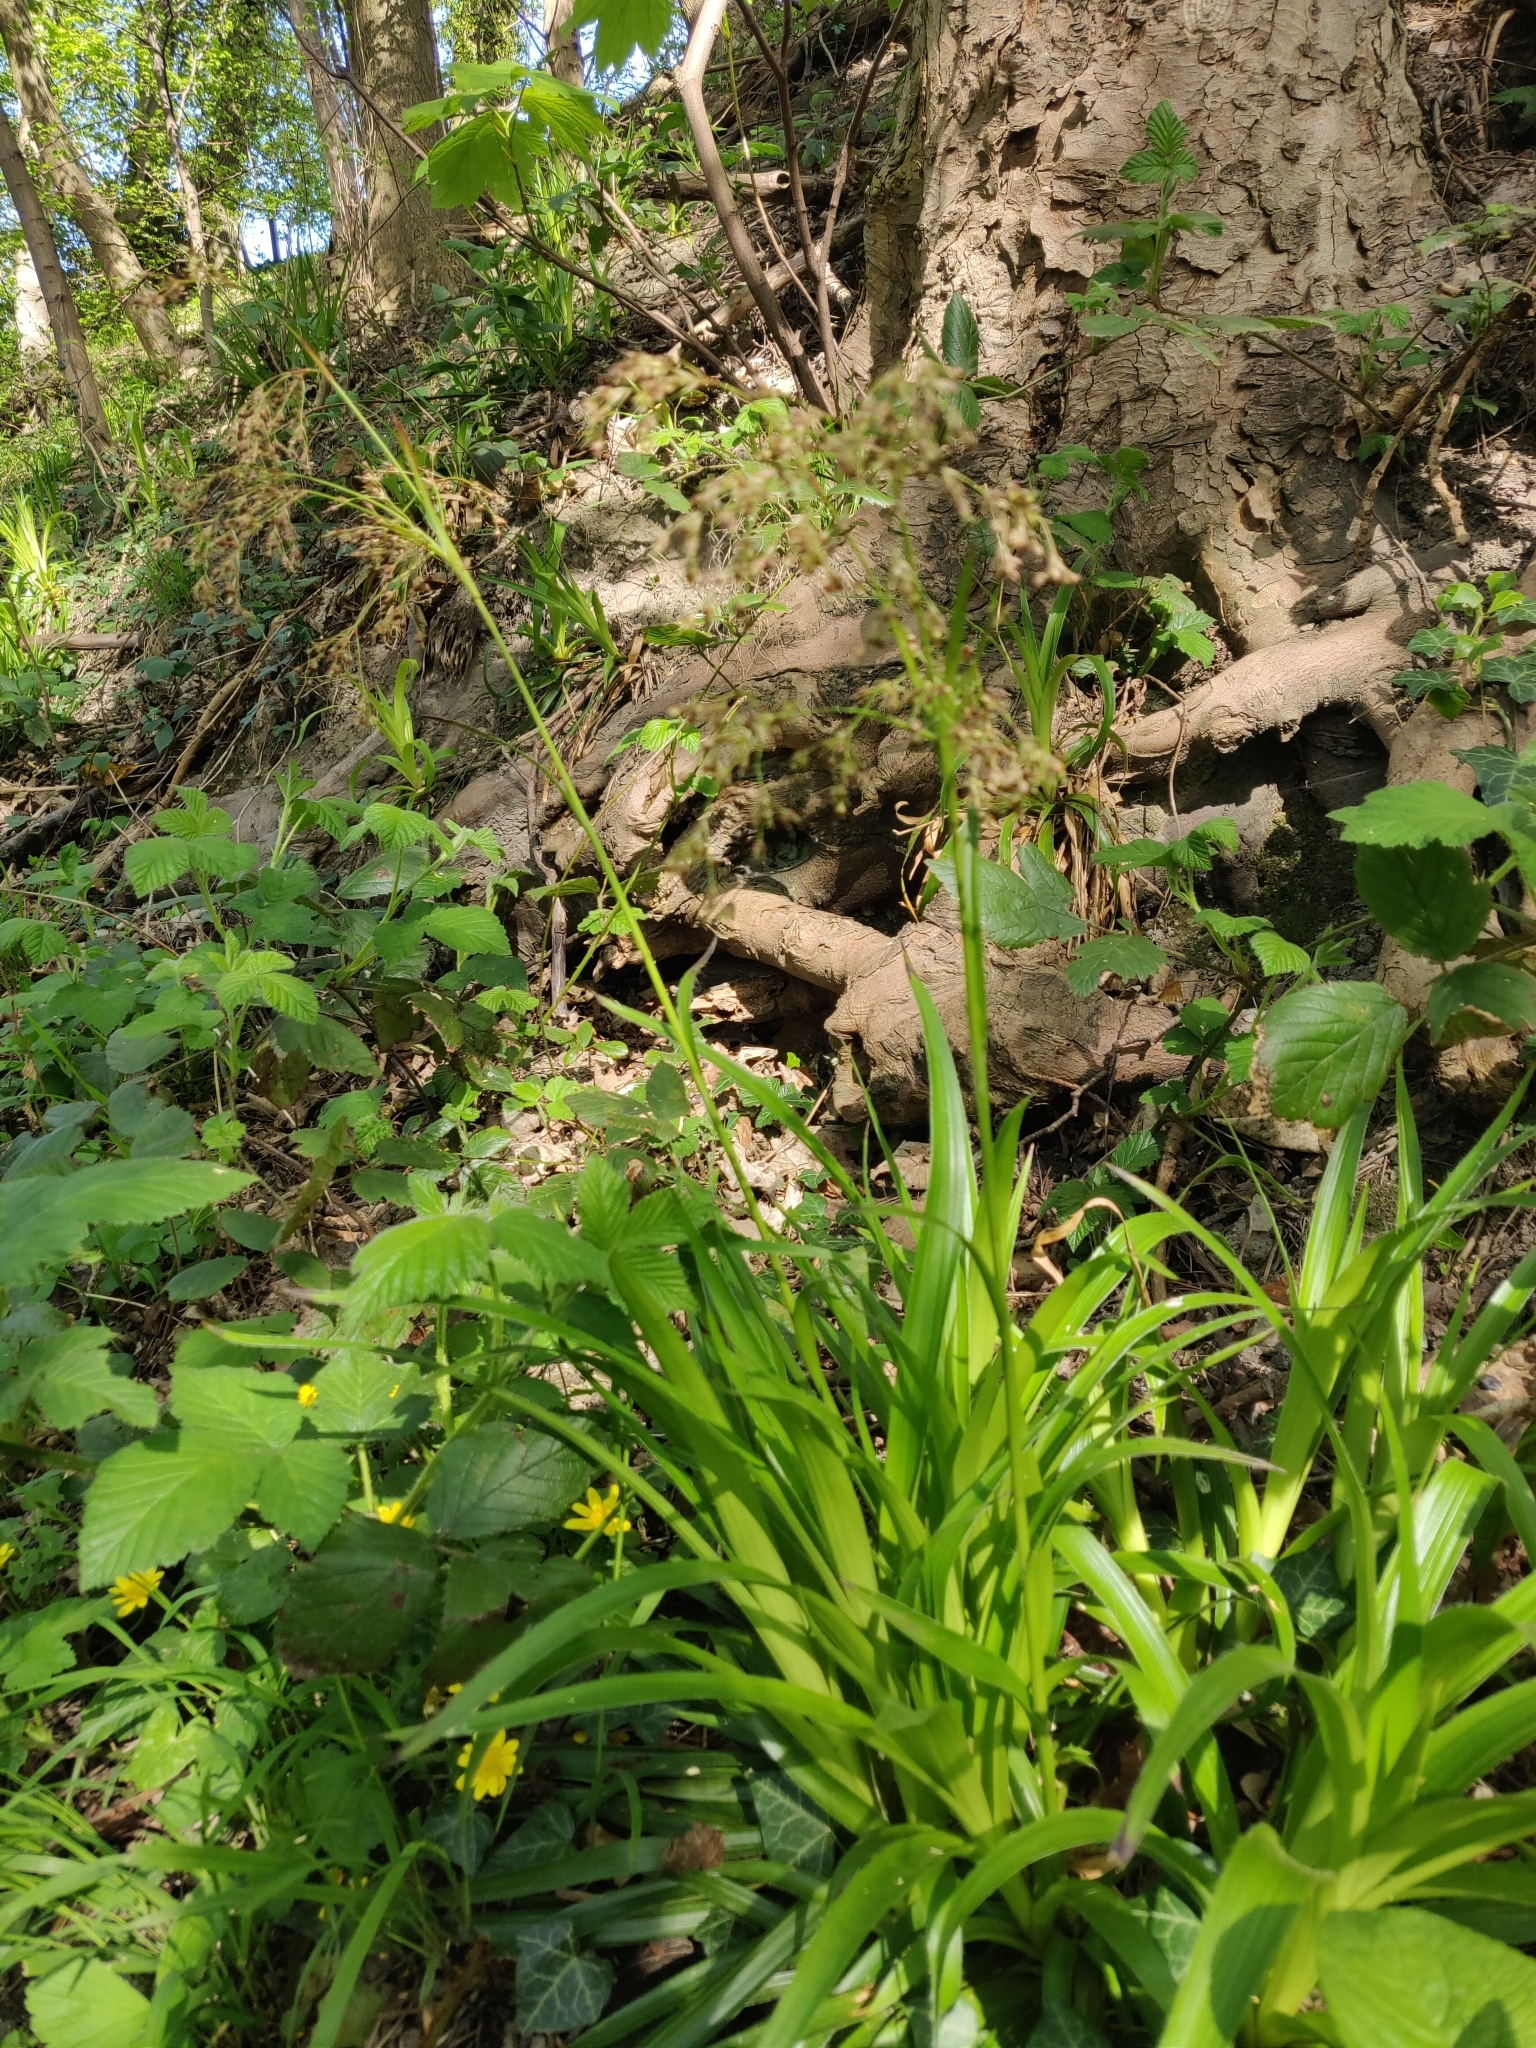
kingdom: Plantae
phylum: Tracheophyta
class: Liliopsida
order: Poales
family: Juncaceae
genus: Luzula
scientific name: Luzula sylvatica
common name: Great wood-rush
